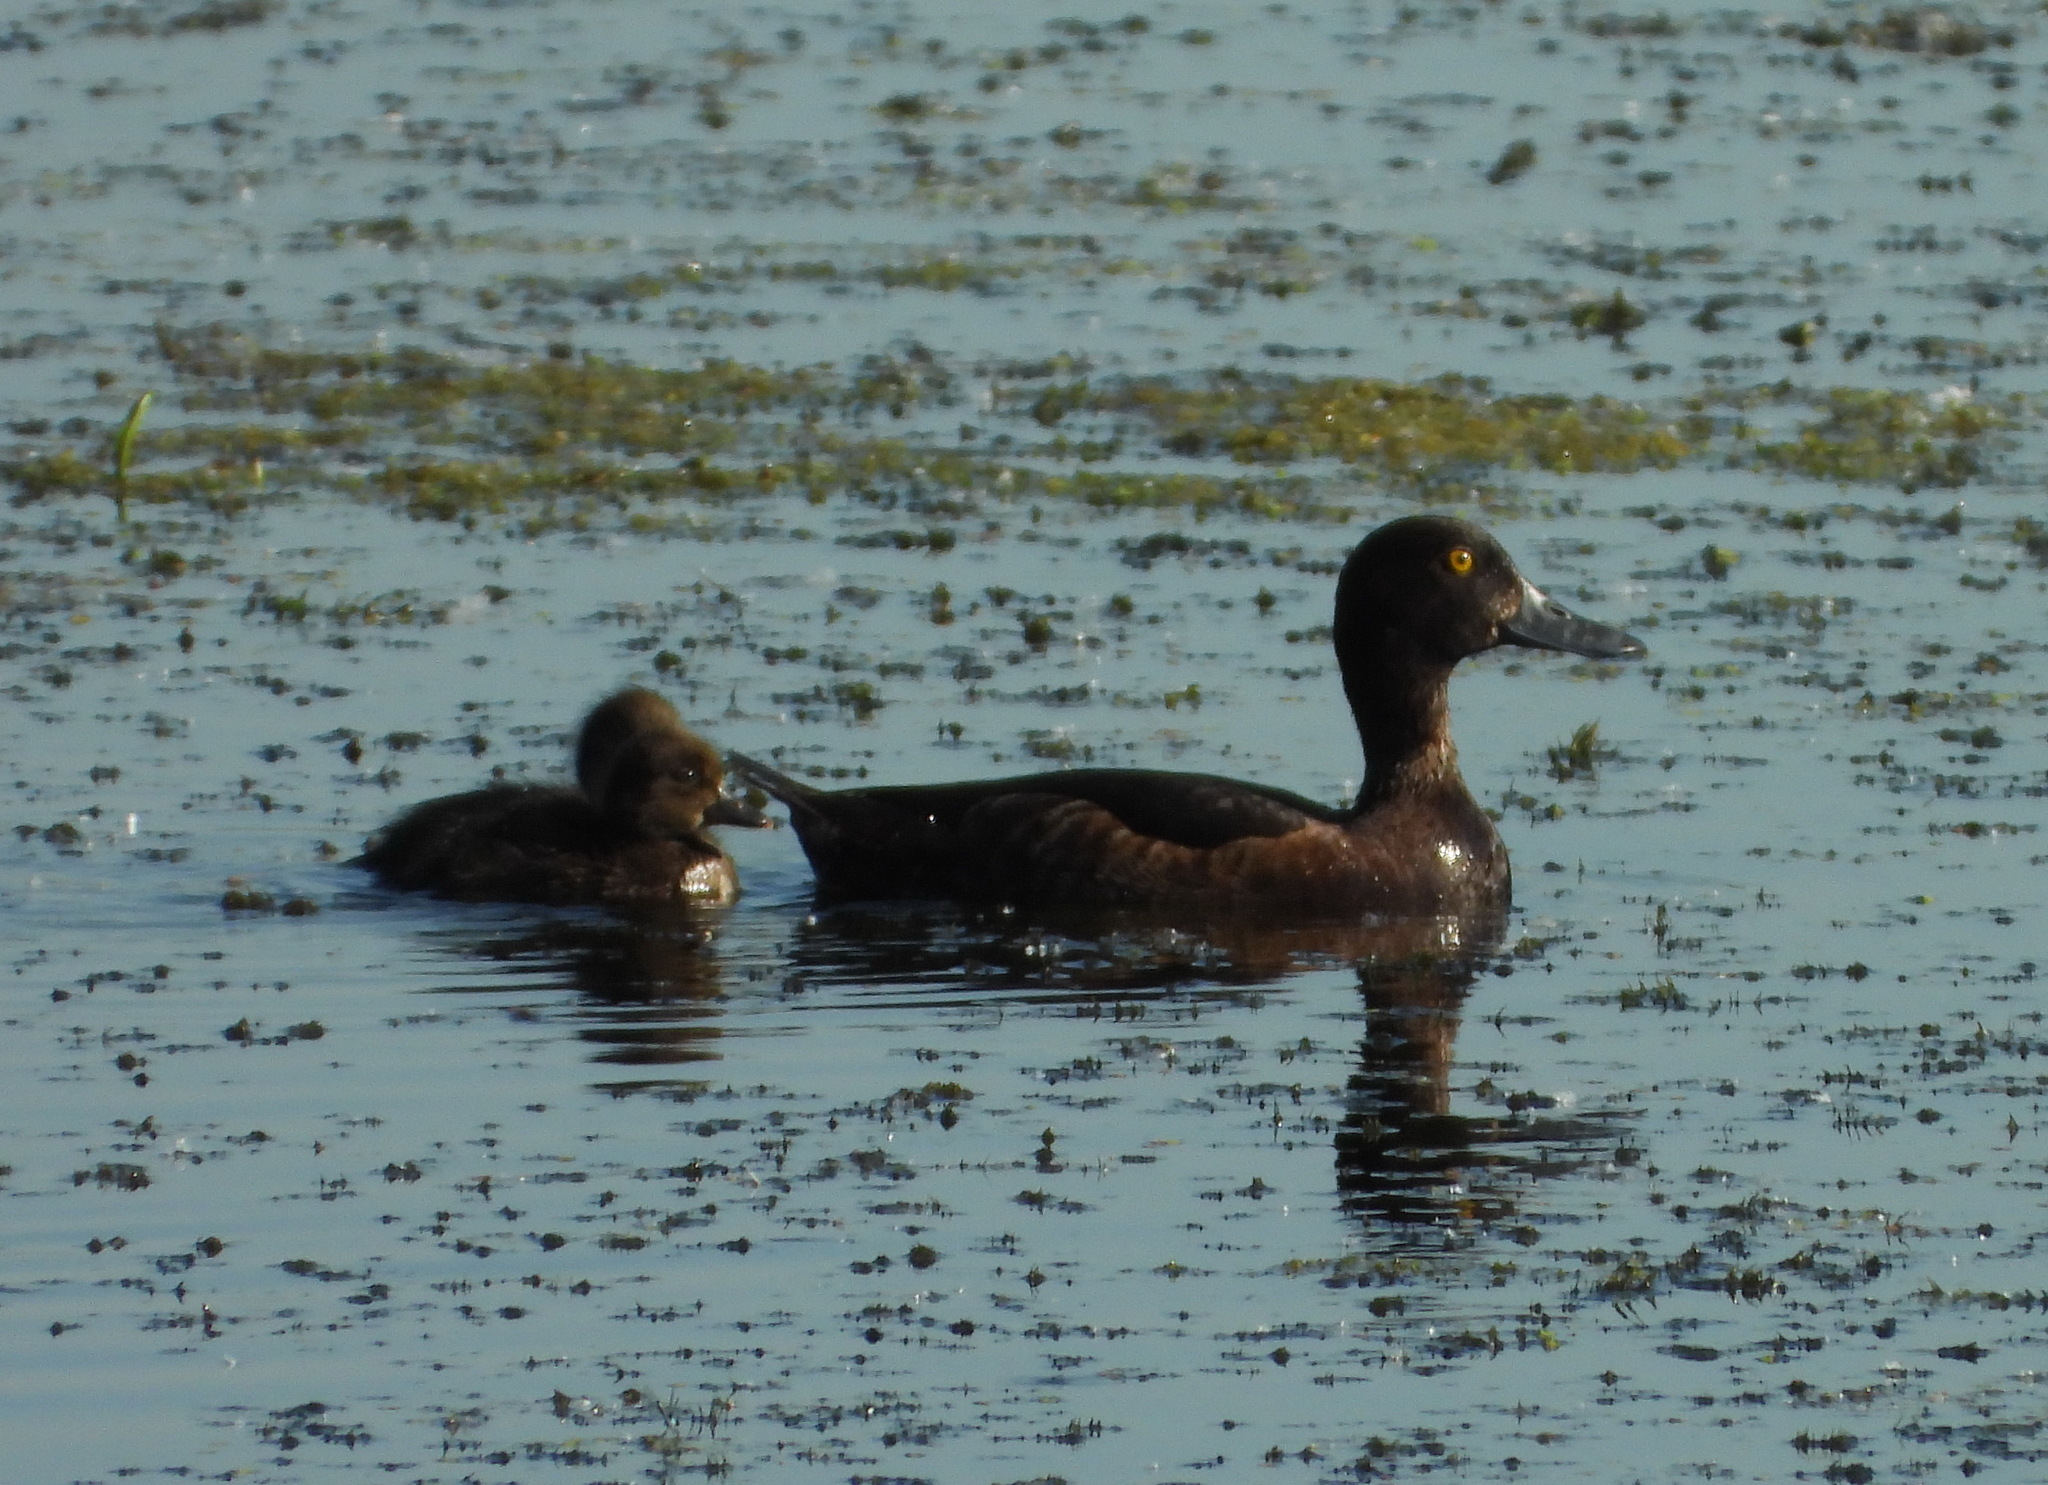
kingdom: Animalia
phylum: Chordata
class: Aves
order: Anseriformes
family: Anatidae
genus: Aythya
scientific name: Aythya fuligula
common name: Tufted duck
